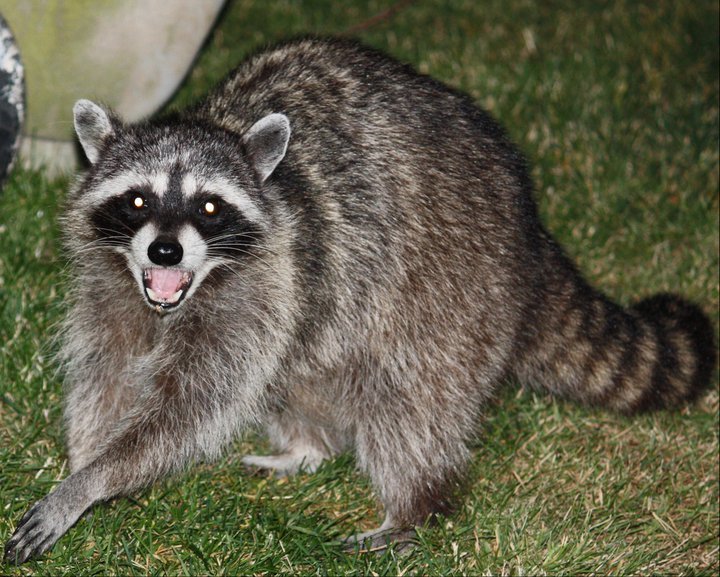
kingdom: Animalia
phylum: Chordata
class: Mammalia
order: Carnivora
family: Procyonidae
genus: Procyon
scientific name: Procyon lotor
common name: Raccoon
